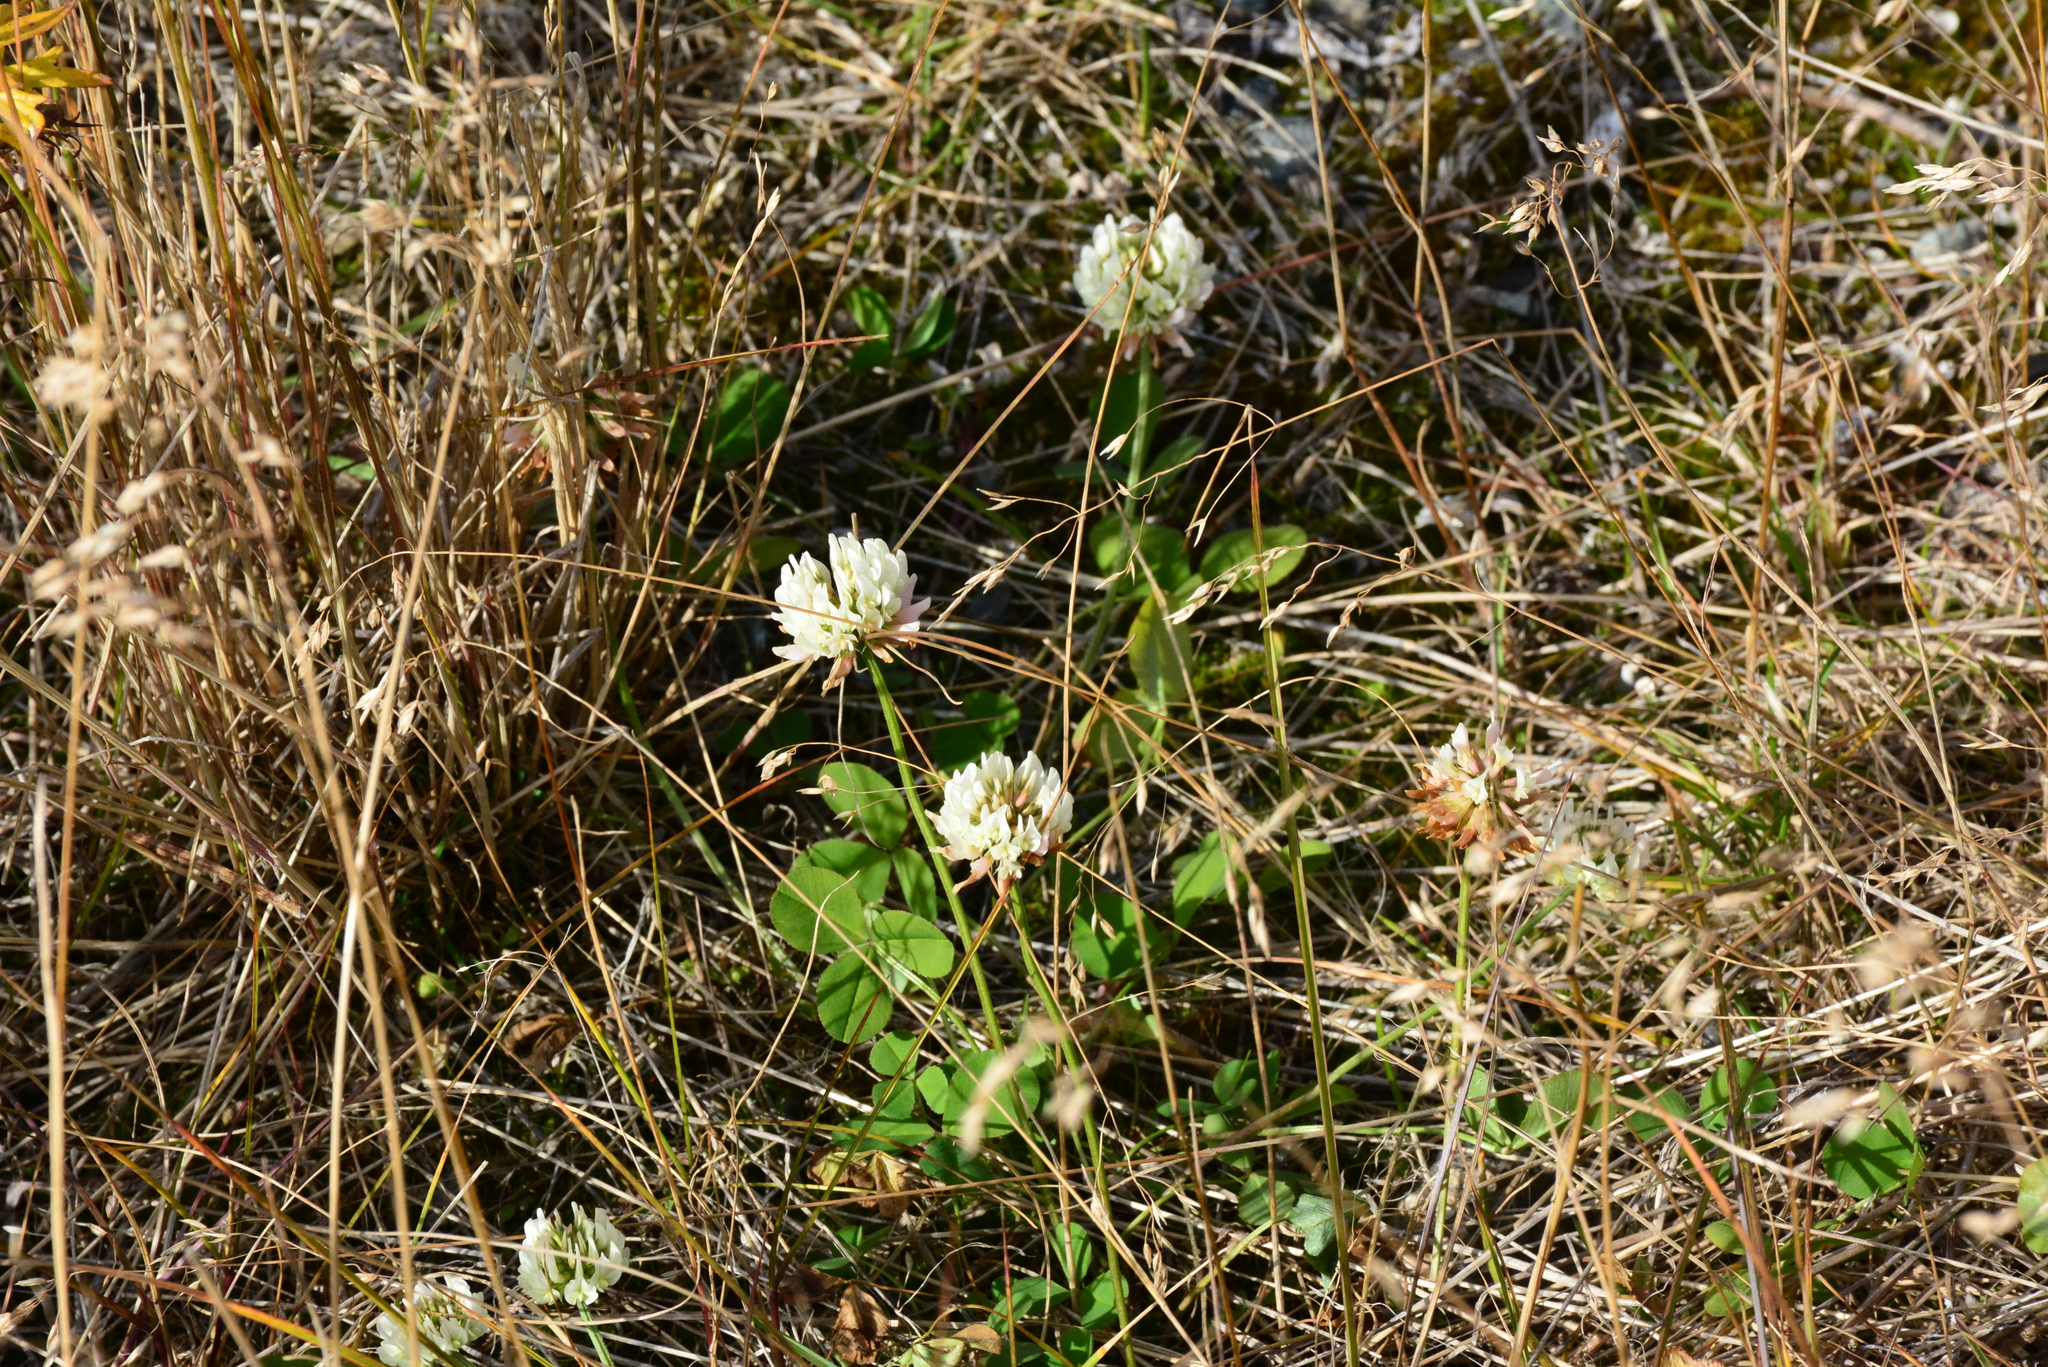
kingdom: Plantae
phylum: Tracheophyta
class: Magnoliopsida
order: Fabales
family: Fabaceae
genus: Trifolium
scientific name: Trifolium repens
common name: White clover
